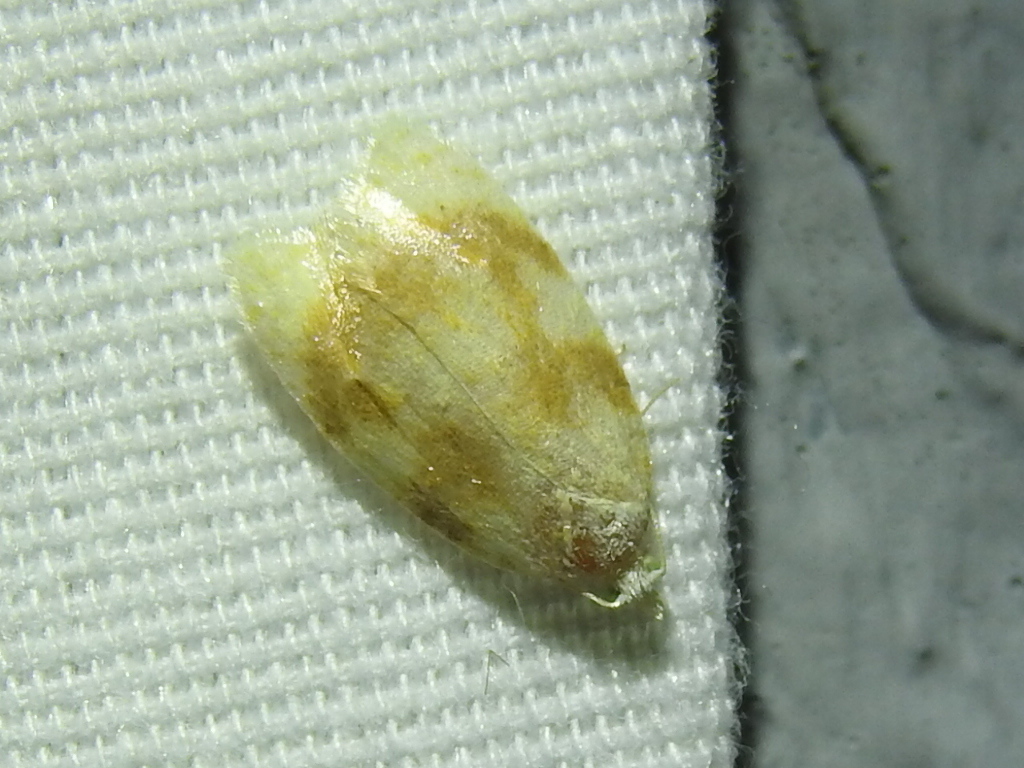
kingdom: Animalia
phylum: Arthropoda
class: Insecta
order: Lepidoptera
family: Tortricidae
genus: Acleris
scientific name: Acleris semipurpurana
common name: Oak leaftier moth
